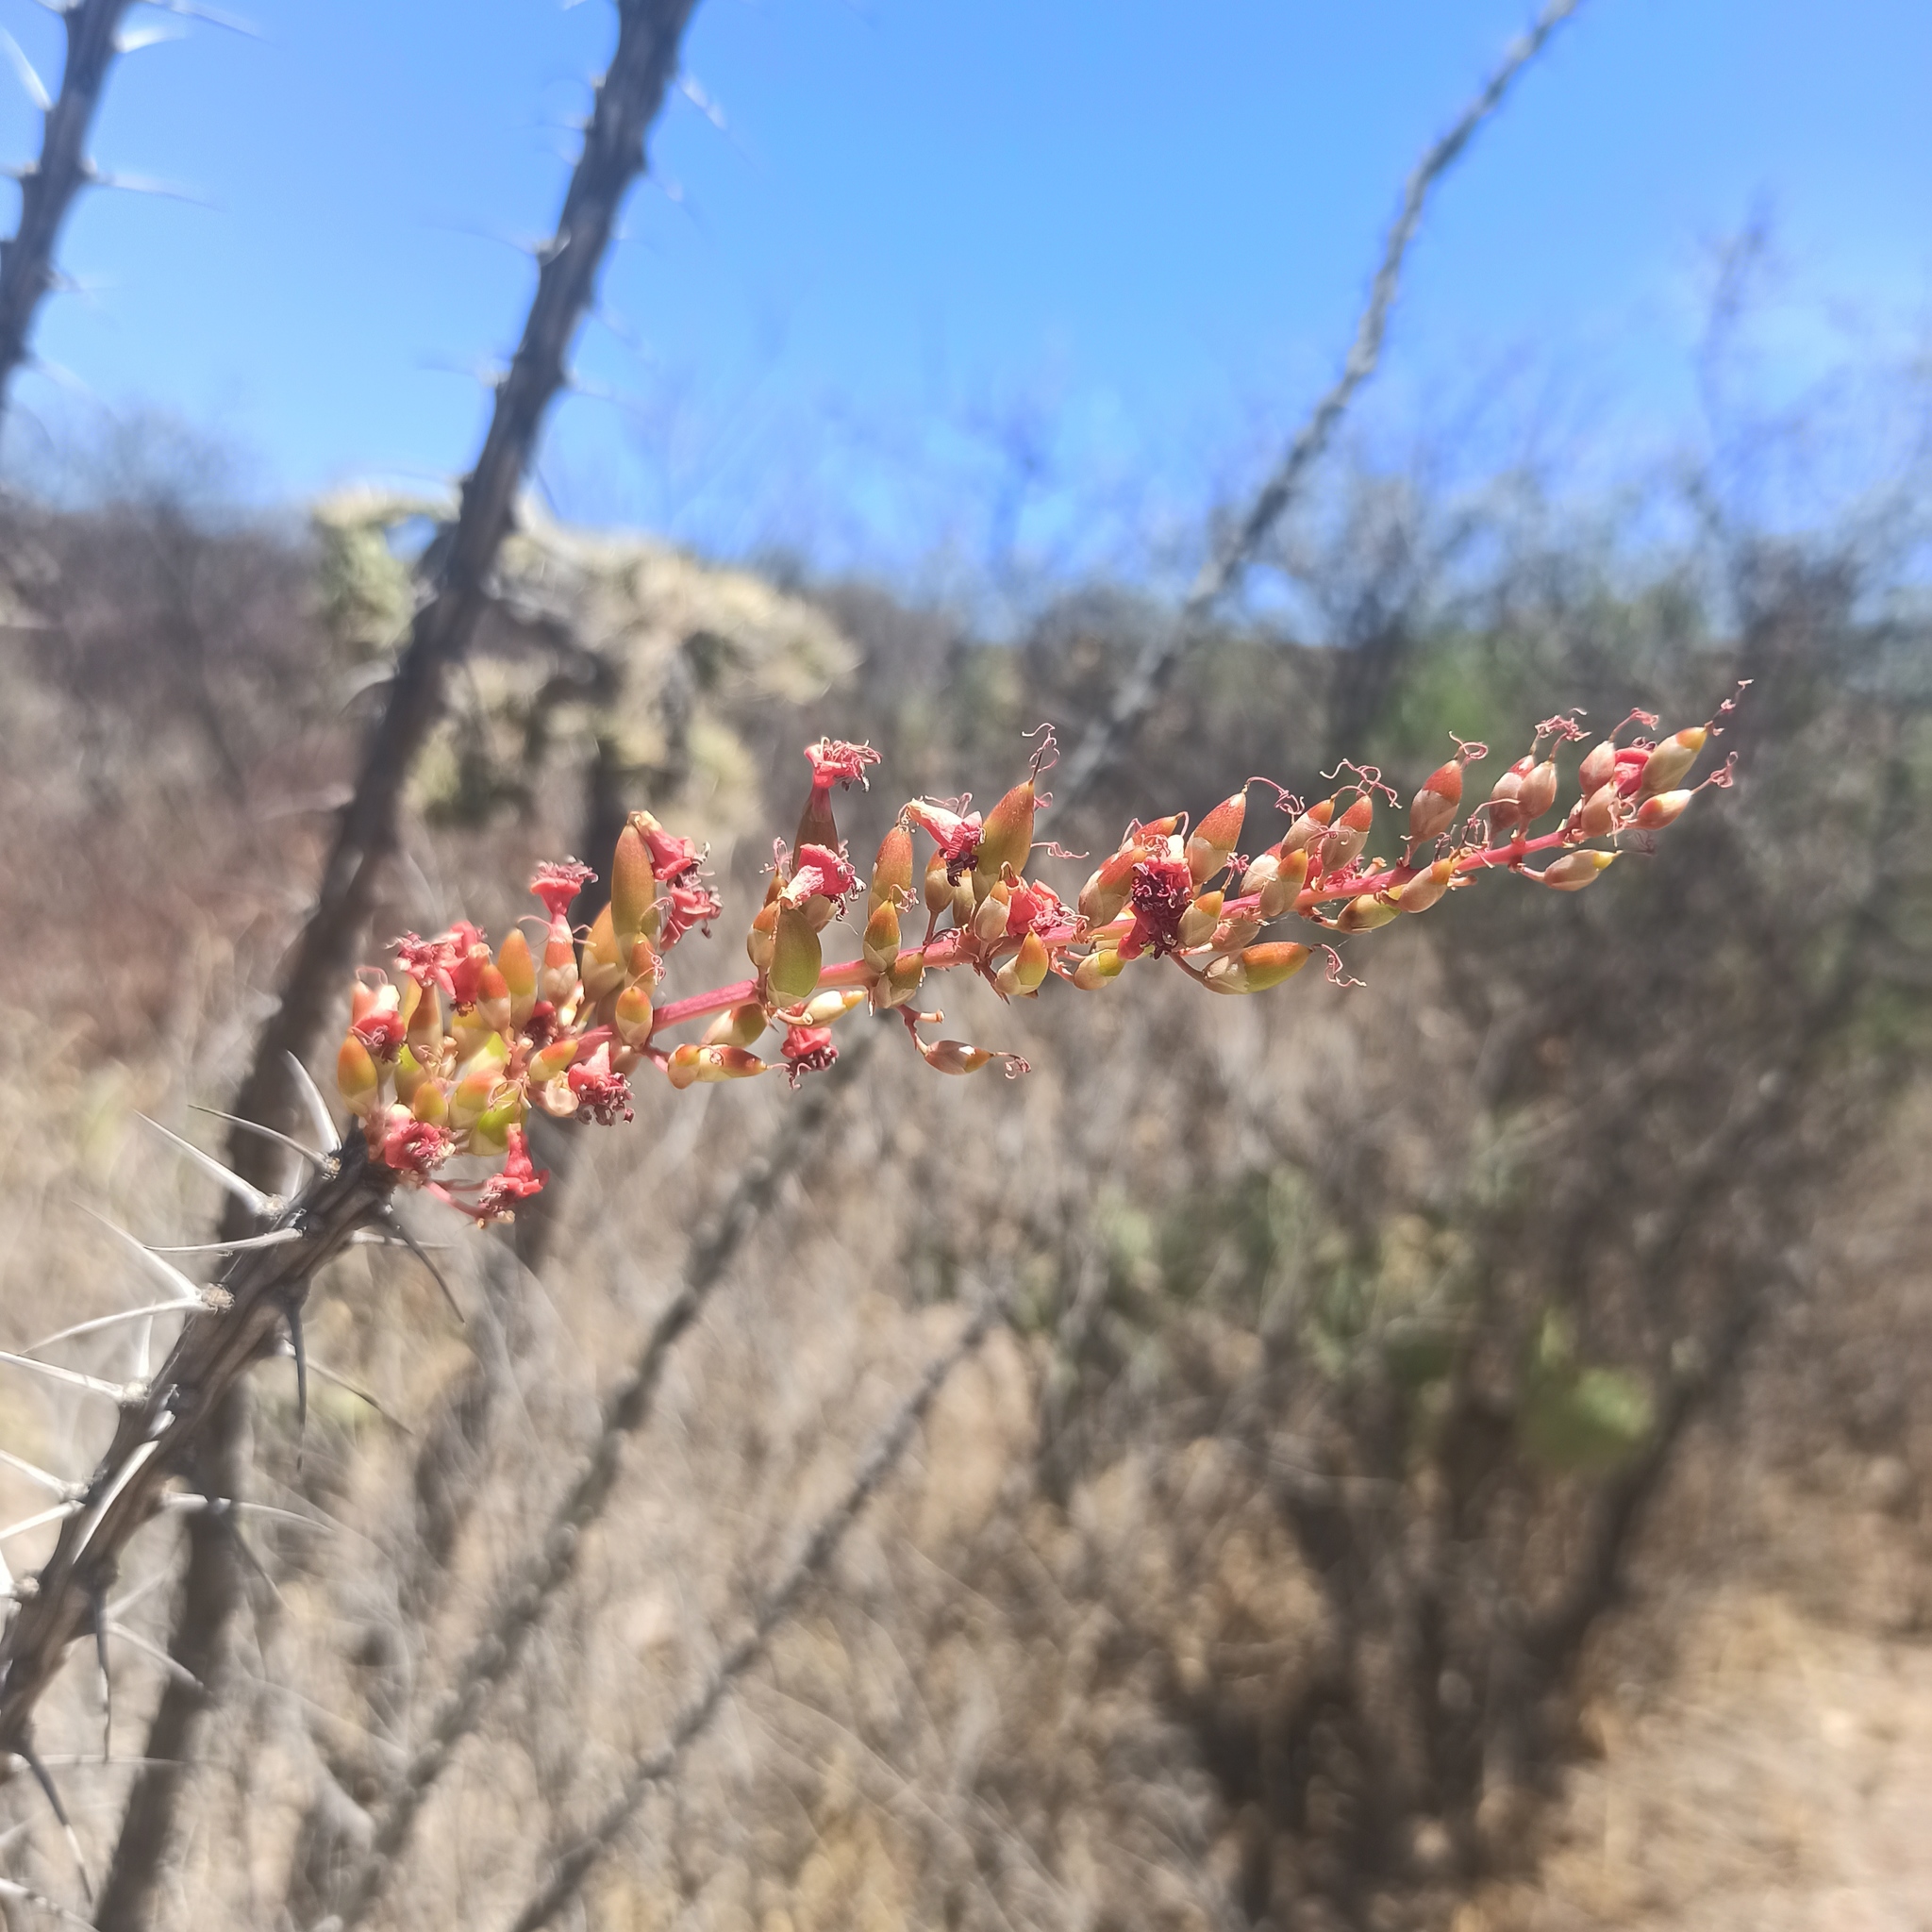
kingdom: Plantae
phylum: Tracheophyta
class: Magnoliopsida
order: Ericales
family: Fouquieriaceae
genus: Fouquieria
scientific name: Fouquieria splendens
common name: Vine-cactus
